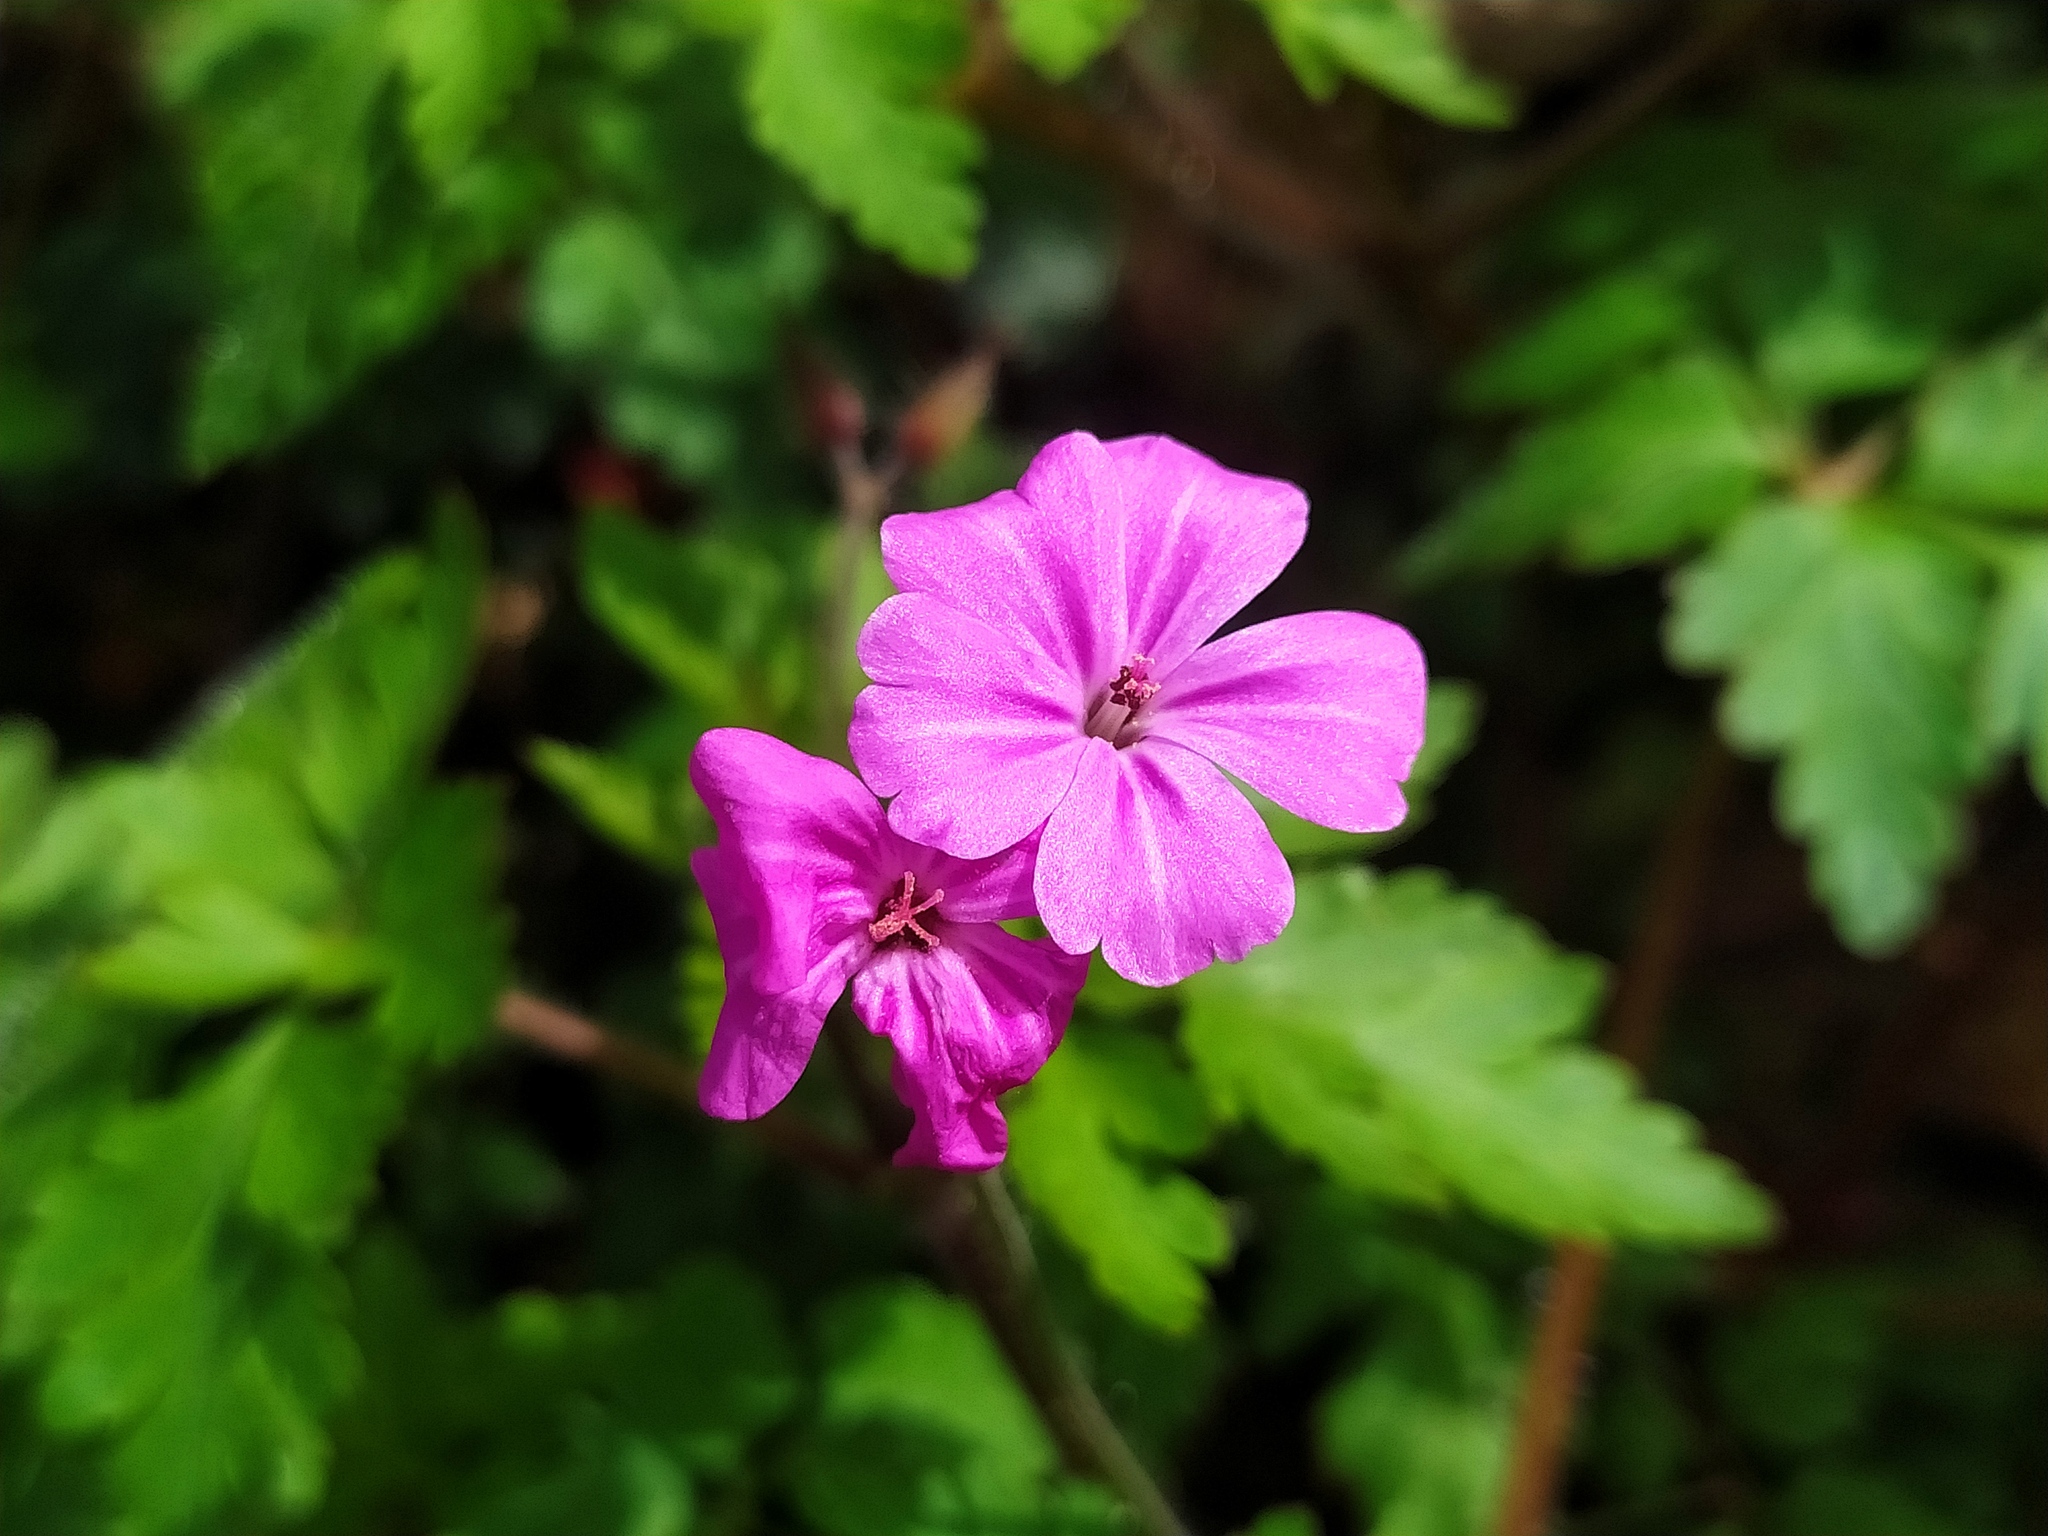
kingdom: Plantae
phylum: Tracheophyta
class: Magnoliopsida
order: Geraniales
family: Geraniaceae
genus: Geranium
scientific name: Geranium robertianum
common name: Herb-robert
